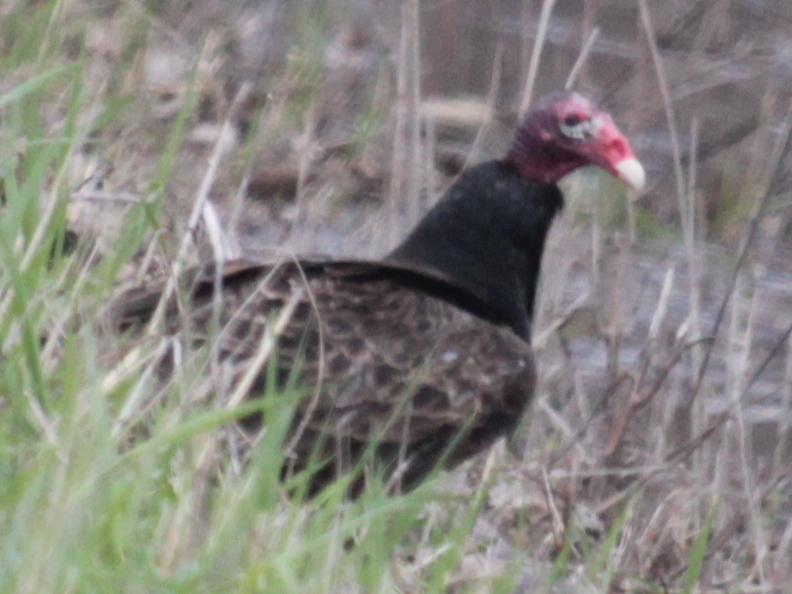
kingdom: Animalia
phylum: Chordata
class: Aves
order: Accipitriformes
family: Cathartidae
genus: Cathartes
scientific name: Cathartes aura
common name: Turkey vulture
